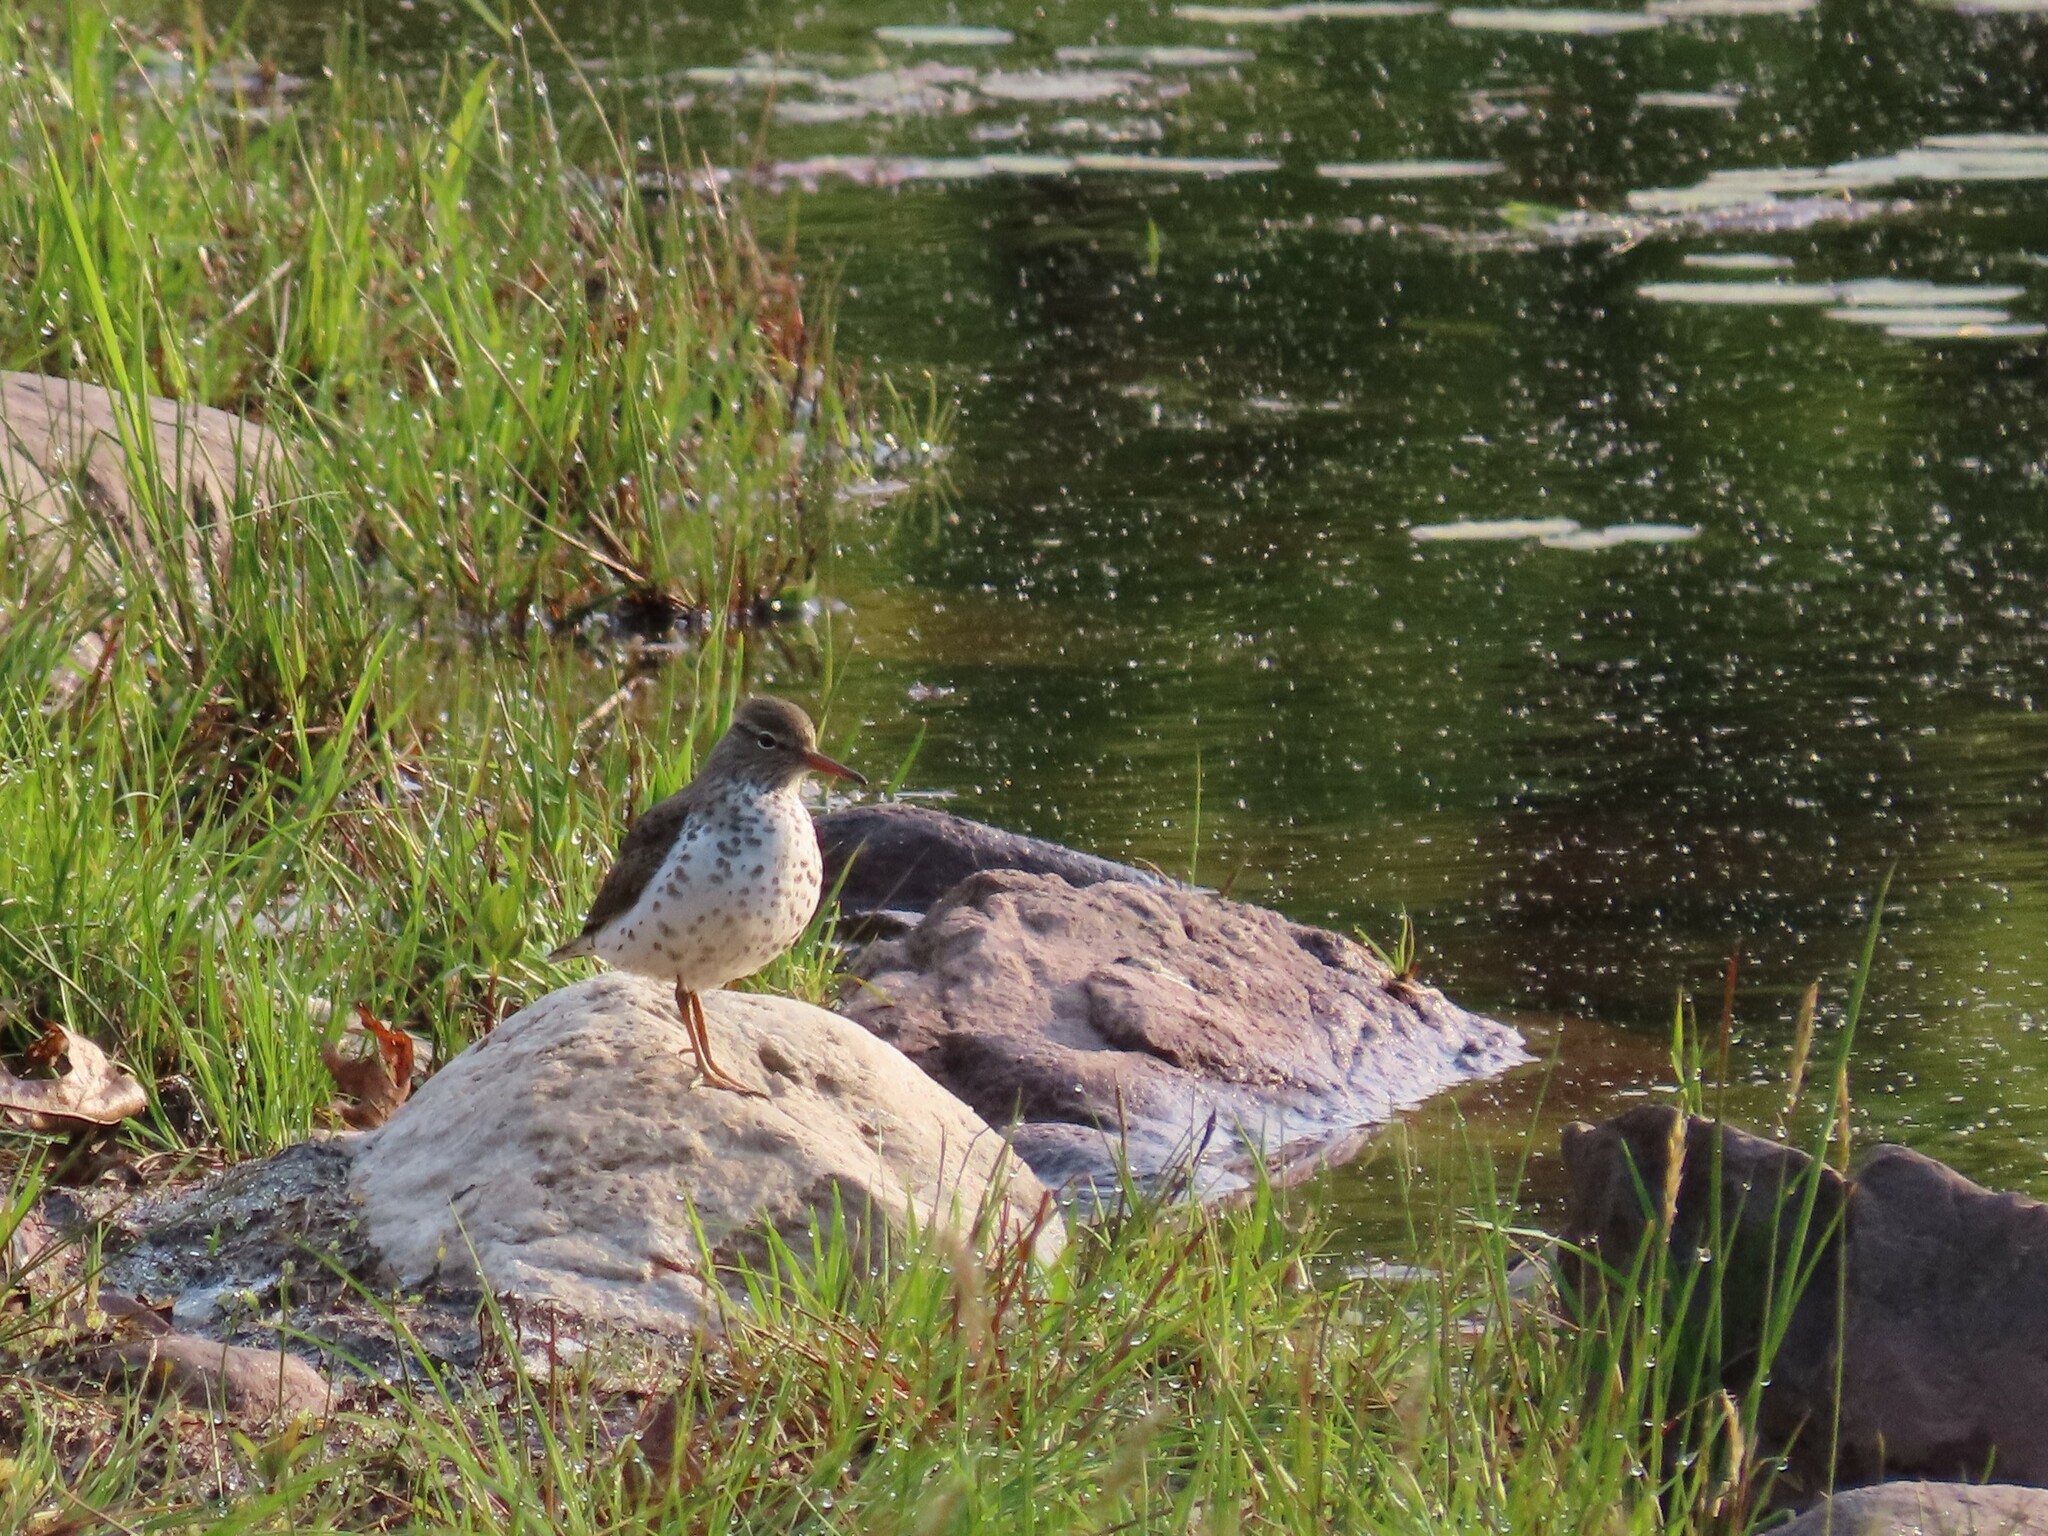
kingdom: Animalia
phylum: Chordata
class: Aves
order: Charadriiformes
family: Scolopacidae
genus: Actitis
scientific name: Actitis macularius
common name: Spotted sandpiper
